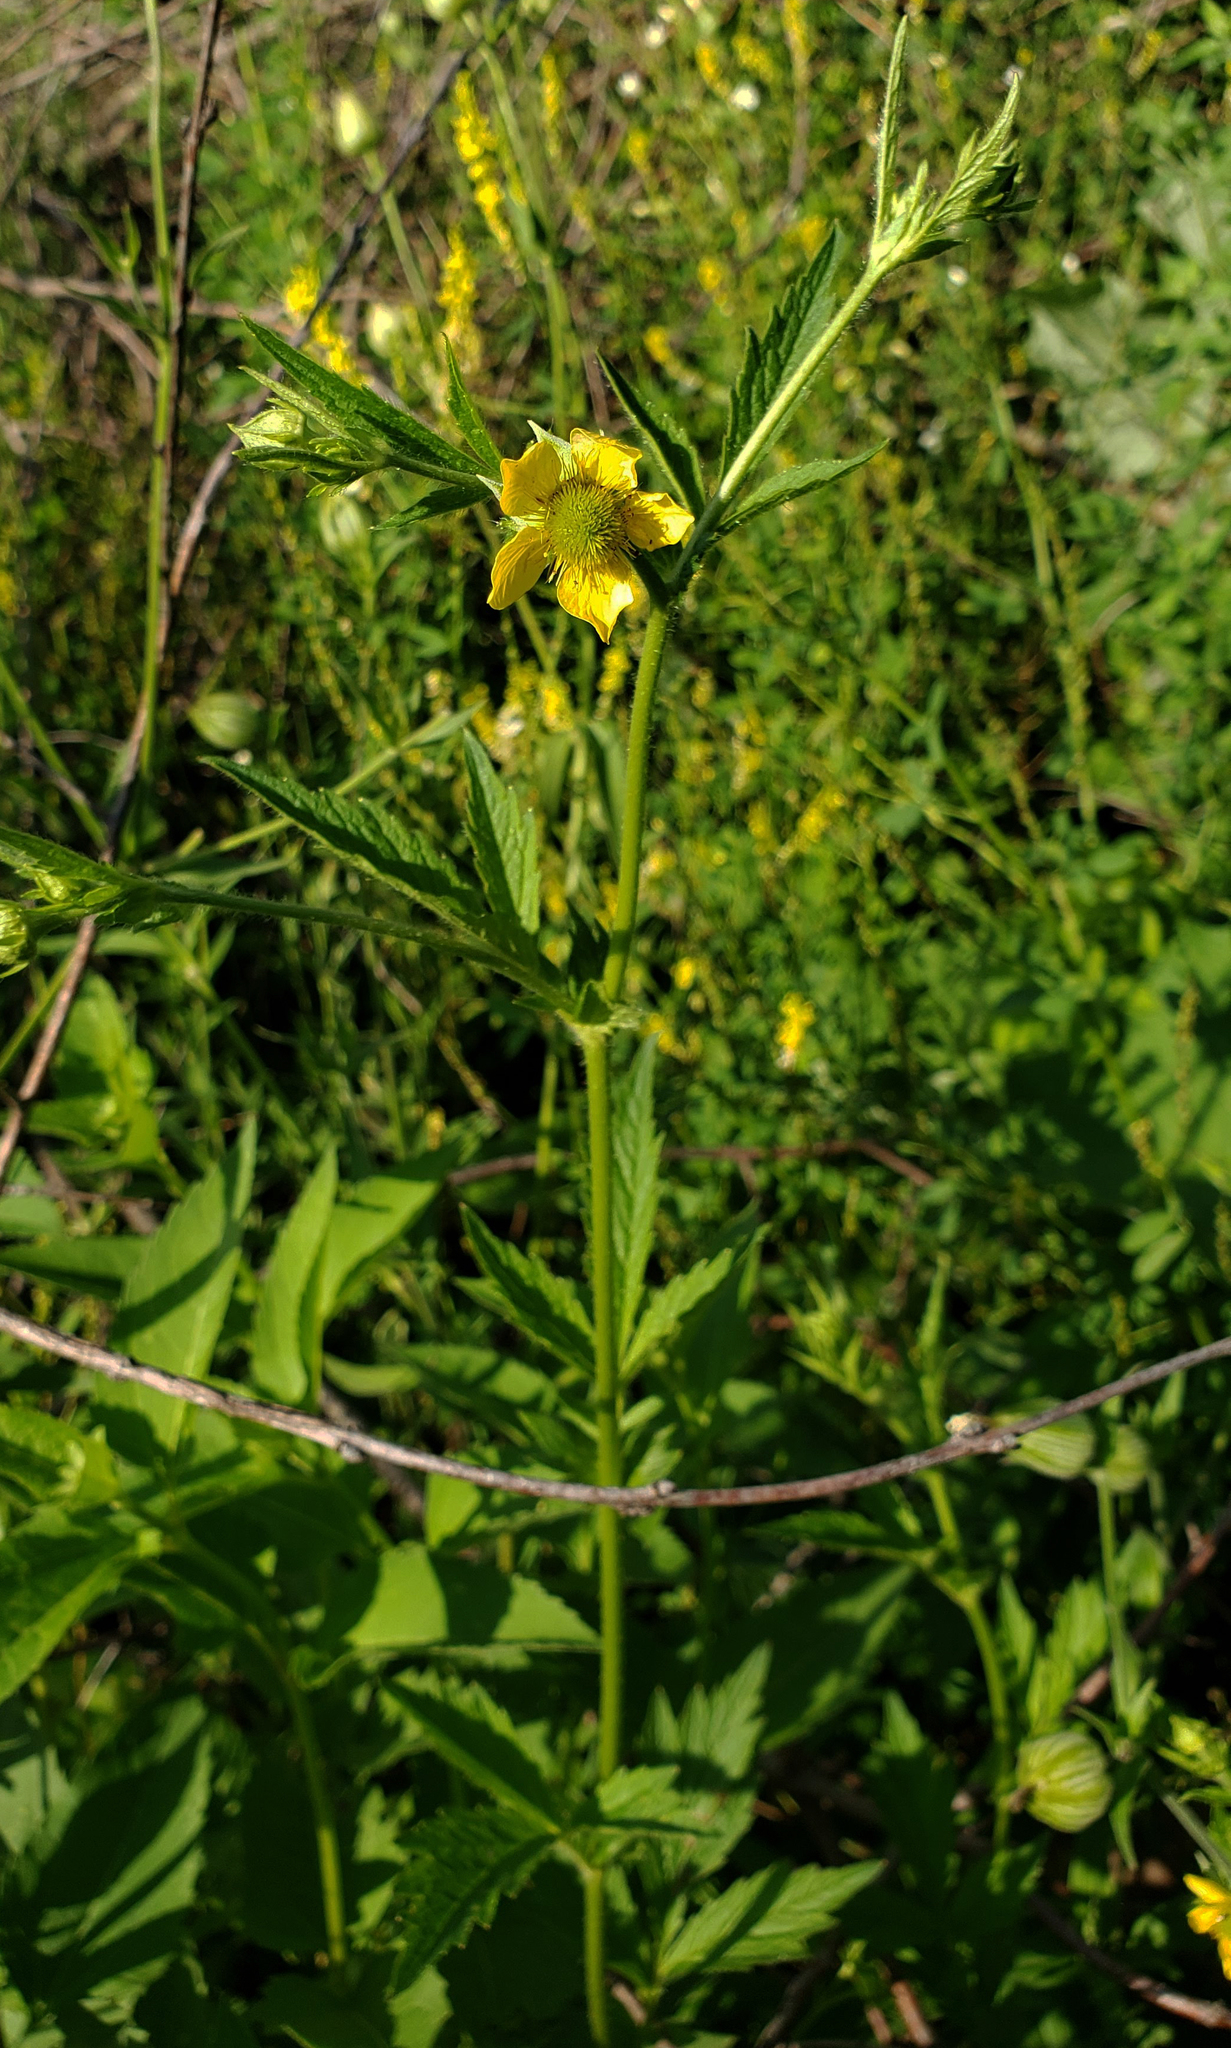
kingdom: Plantae
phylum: Tracheophyta
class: Magnoliopsida
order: Rosales
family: Rosaceae
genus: Geum
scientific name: Geum aleppicum
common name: Yellow avens
